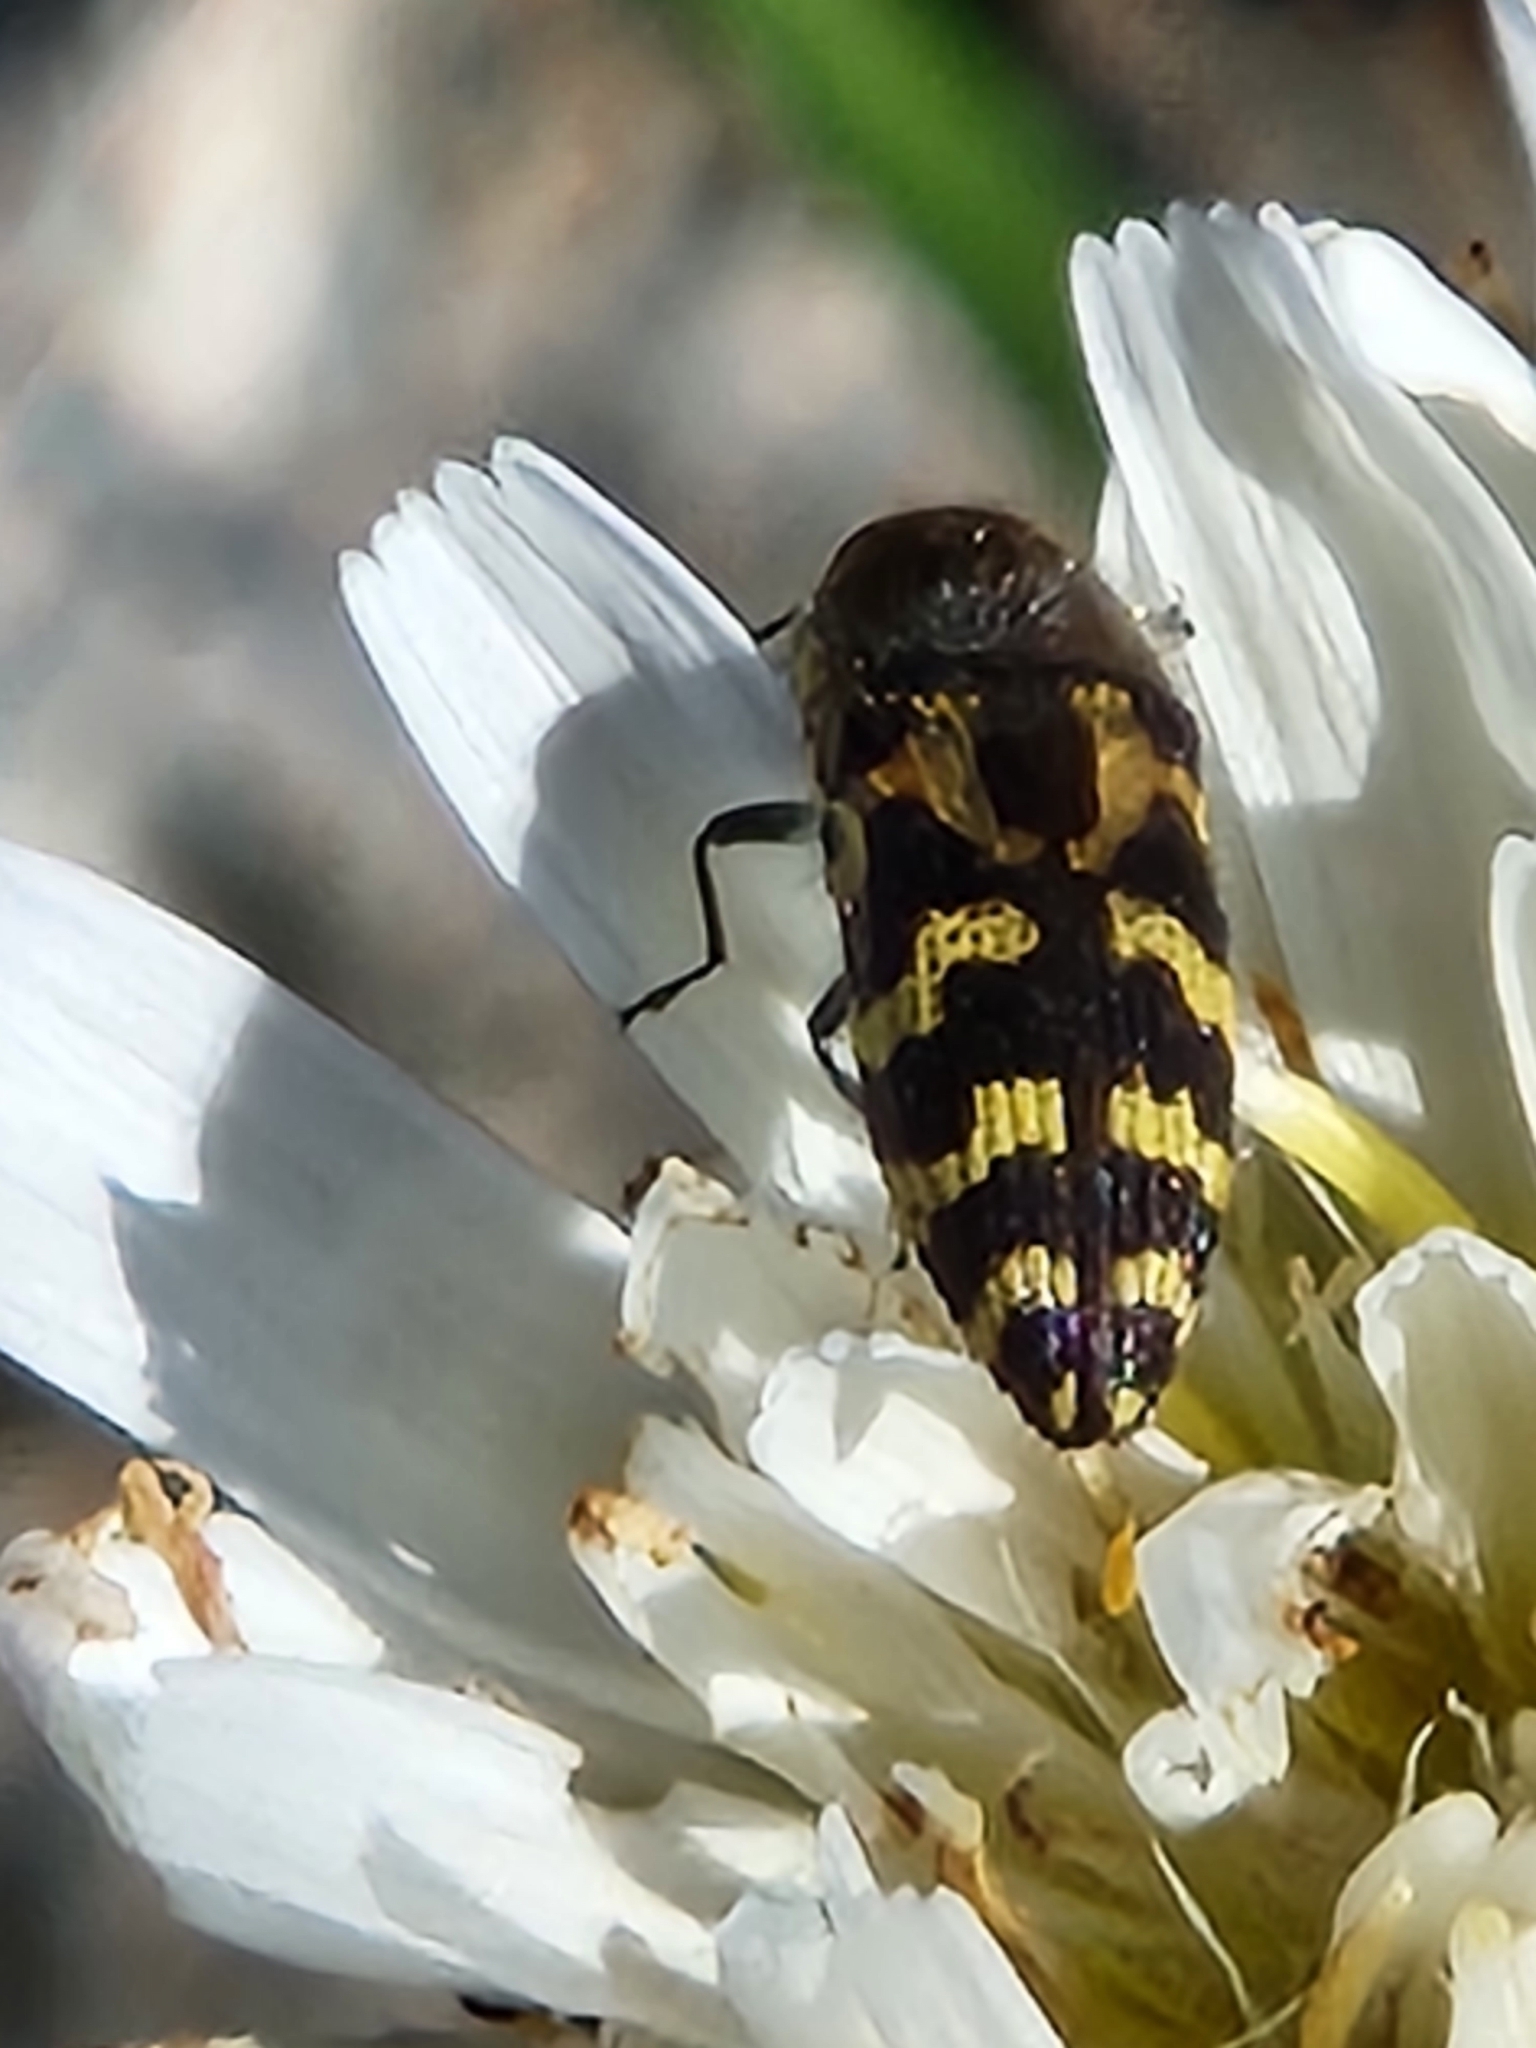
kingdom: Animalia
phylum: Arthropoda
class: Insecta
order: Coleoptera
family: Buprestidae
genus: Acmaeodera
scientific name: Acmaeodera mixta
